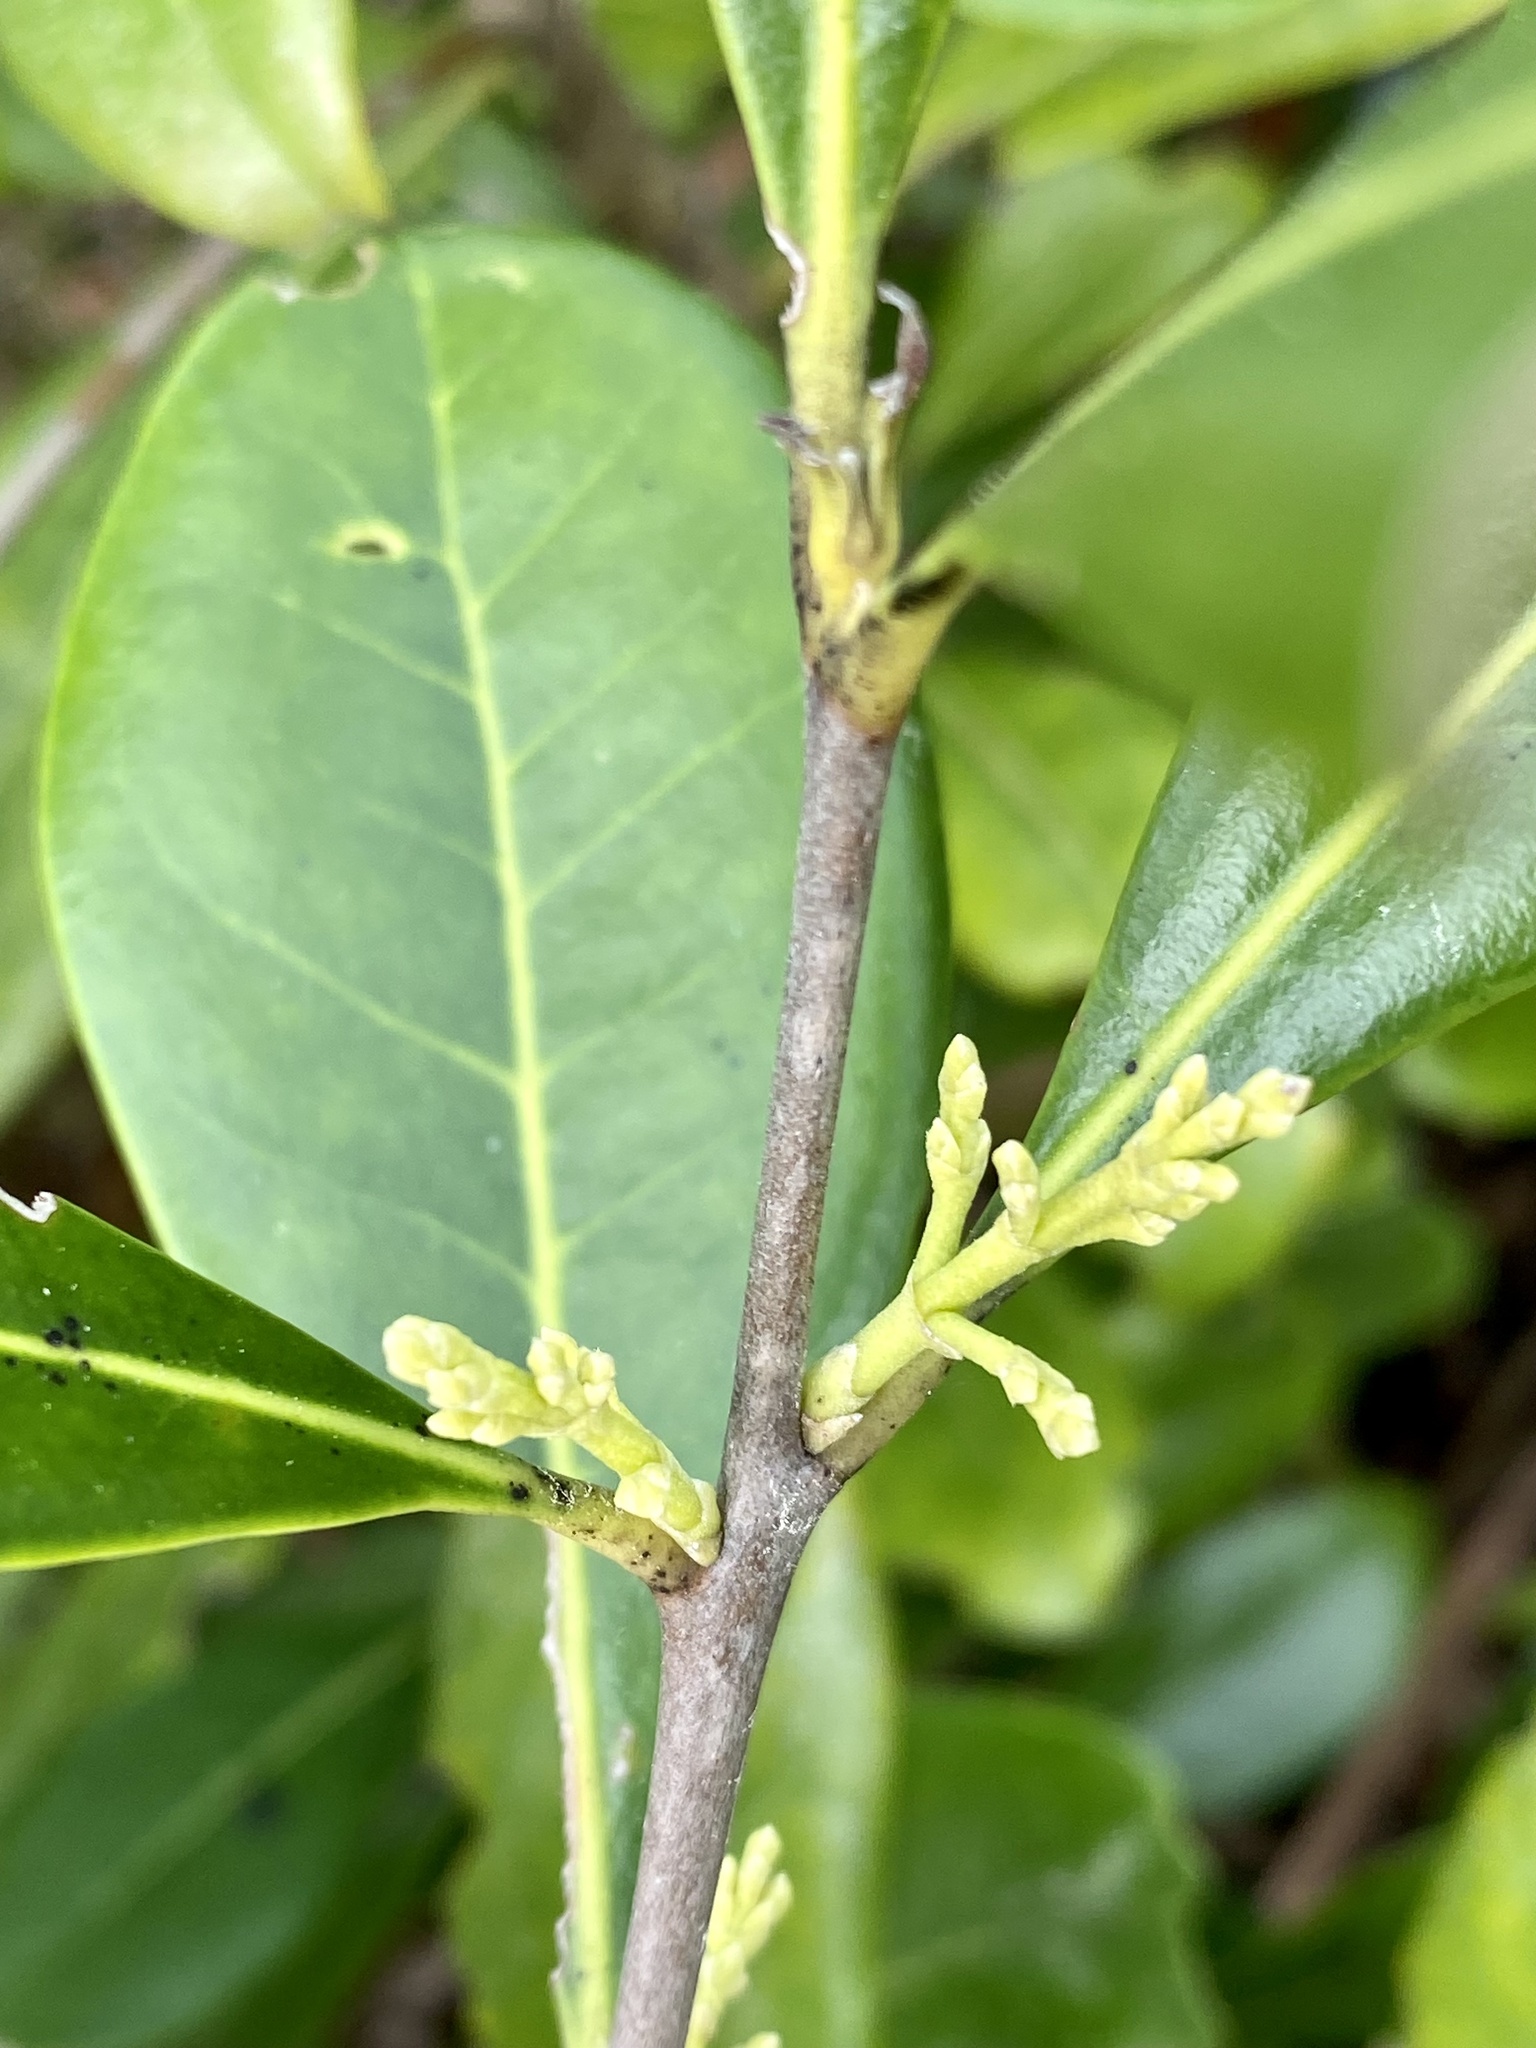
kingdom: Plantae
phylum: Tracheophyta
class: Magnoliopsida
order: Lamiales
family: Oleaceae
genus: Cartrema
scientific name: Cartrema americana
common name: Devilwood
